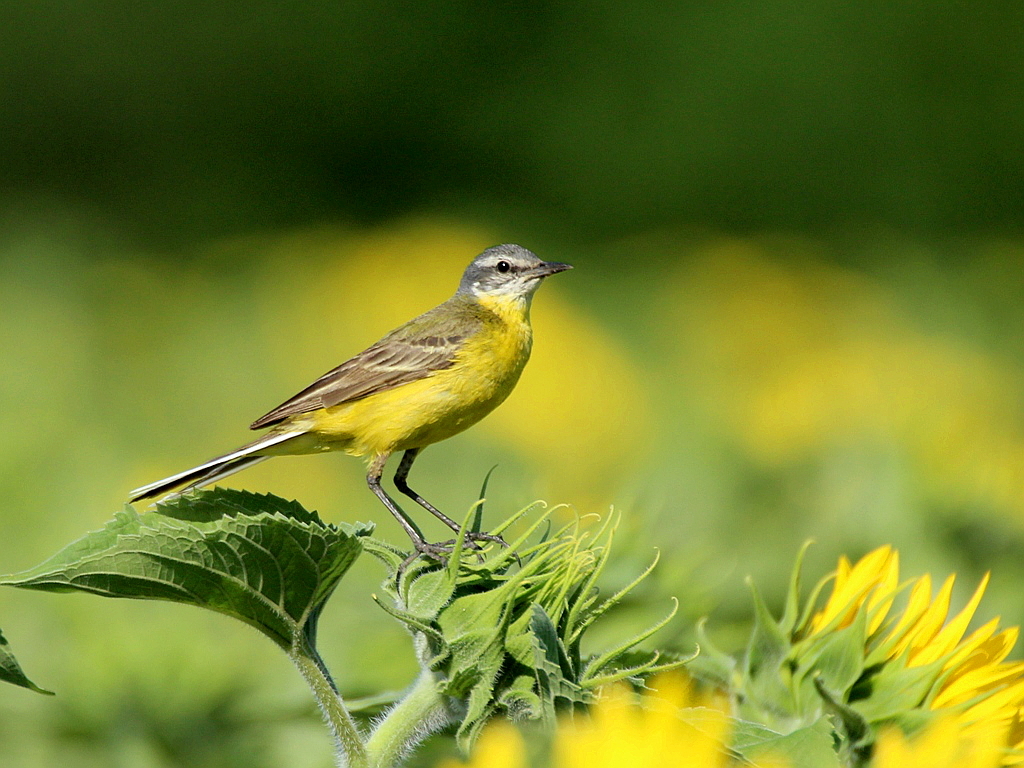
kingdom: Animalia
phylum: Chordata
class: Aves
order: Passeriformes
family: Motacillidae
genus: Motacilla
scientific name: Motacilla flava
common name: Western yellow wagtail
